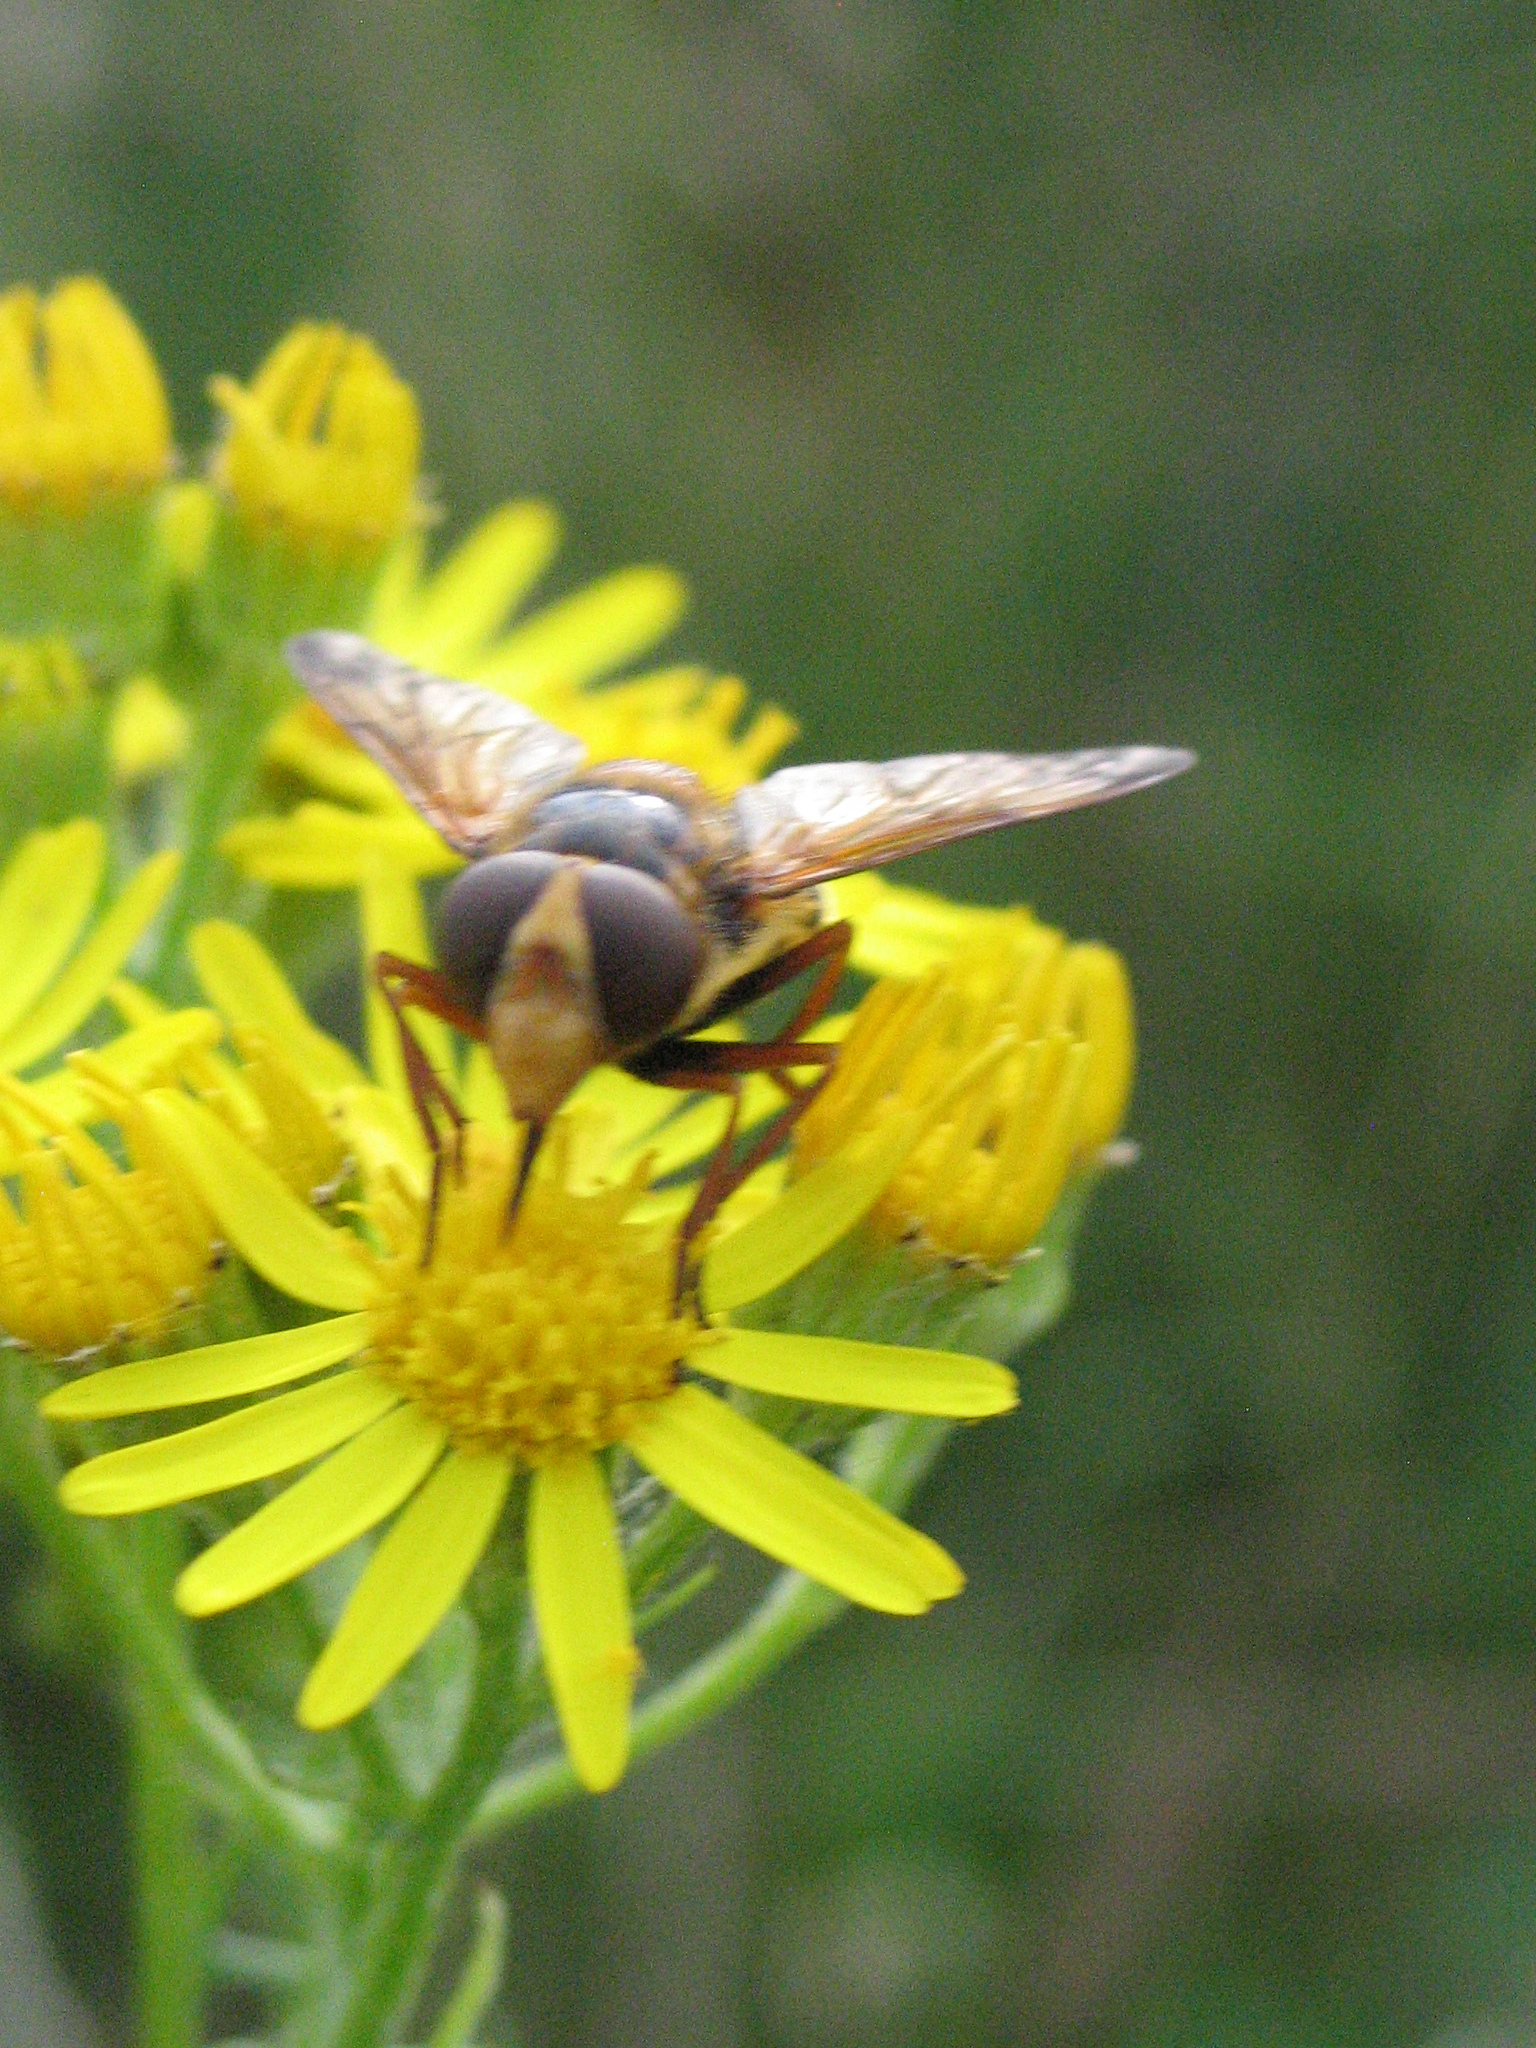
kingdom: Animalia
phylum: Arthropoda
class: Insecta
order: Diptera
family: Syrphidae
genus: Volucella
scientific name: Volucella inanis
